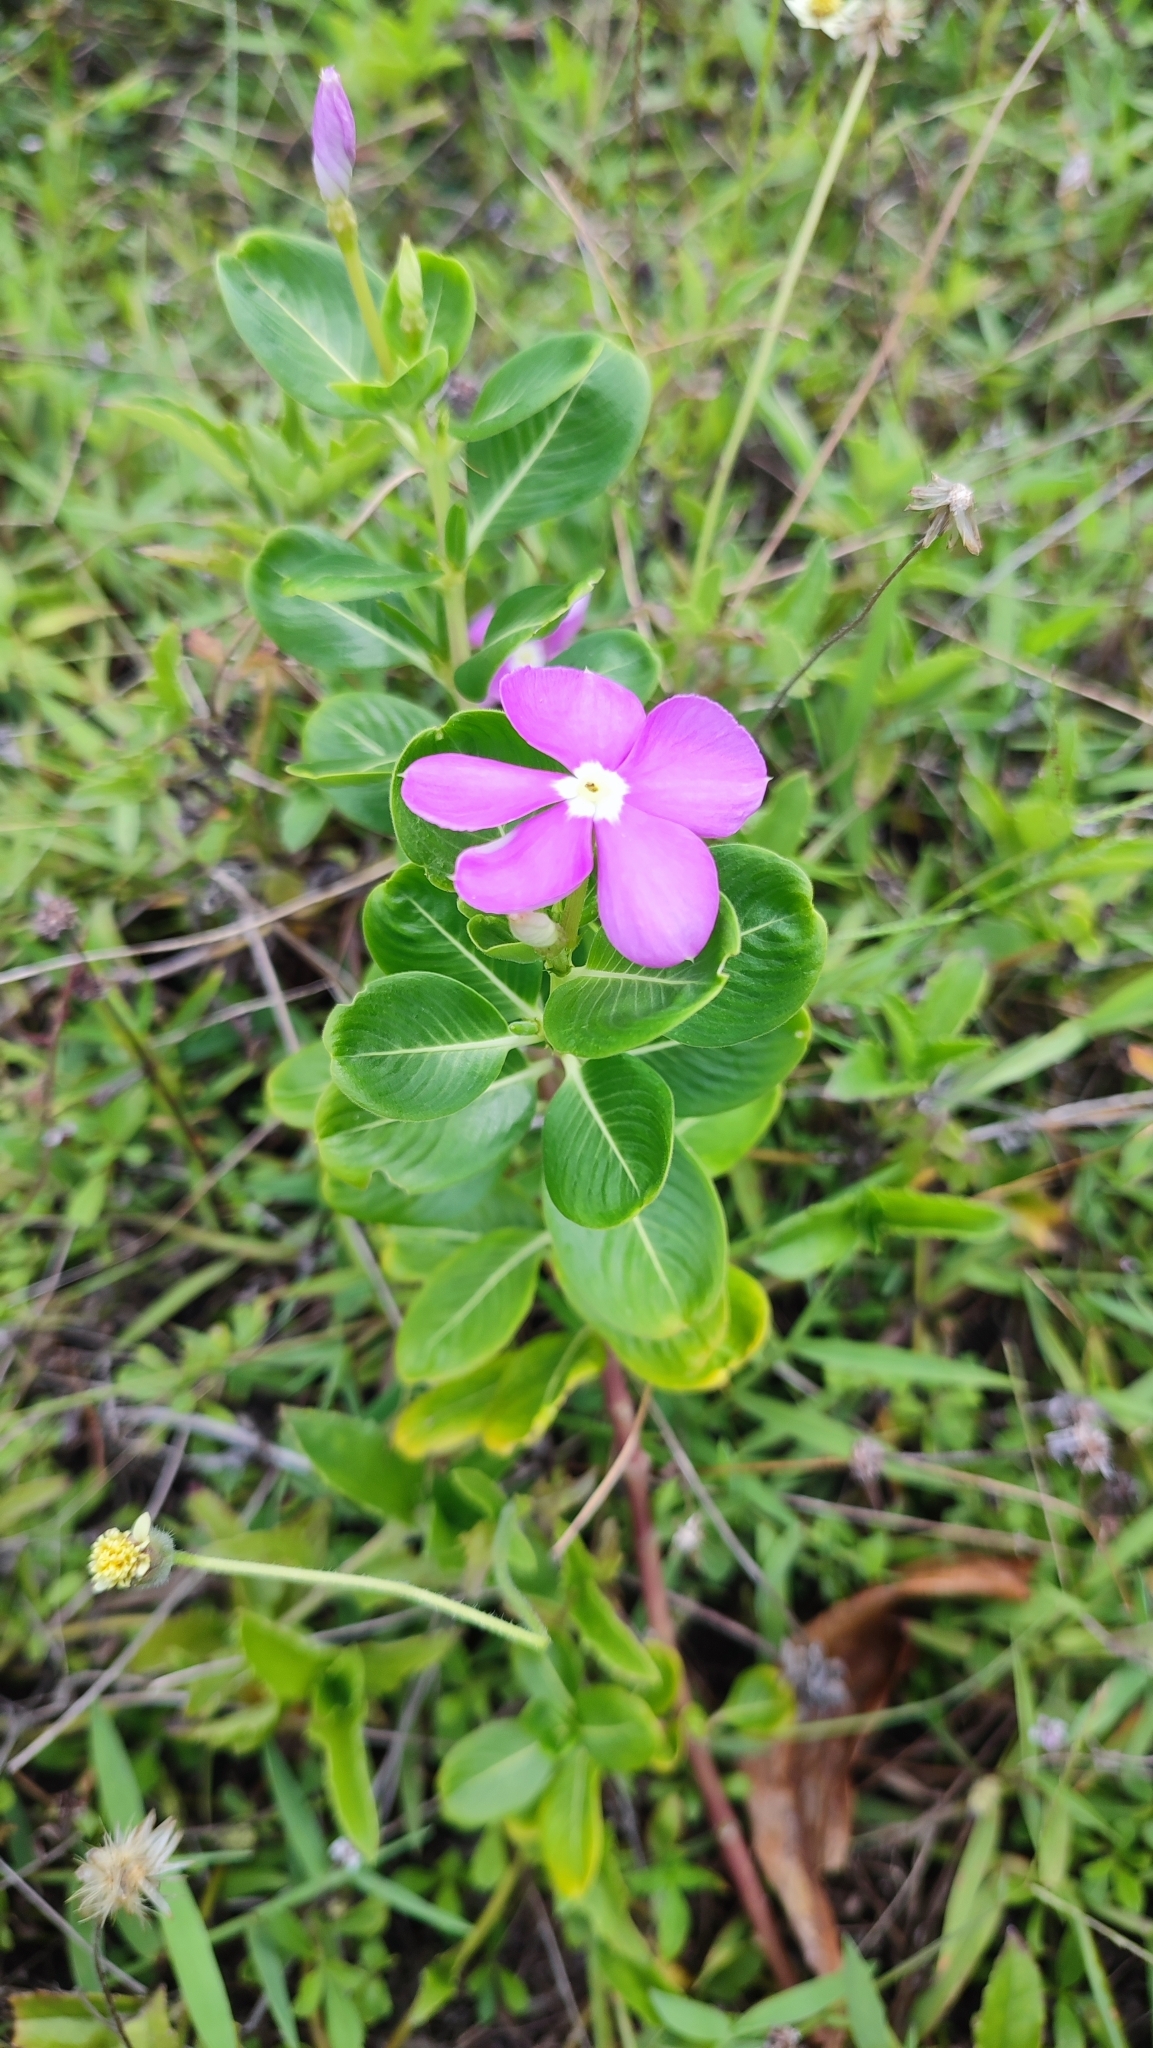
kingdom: Plantae
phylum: Tracheophyta
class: Magnoliopsida
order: Gentianales
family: Apocynaceae
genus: Catharanthus
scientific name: Catharanthus roseus
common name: Madagascar periwinkle
